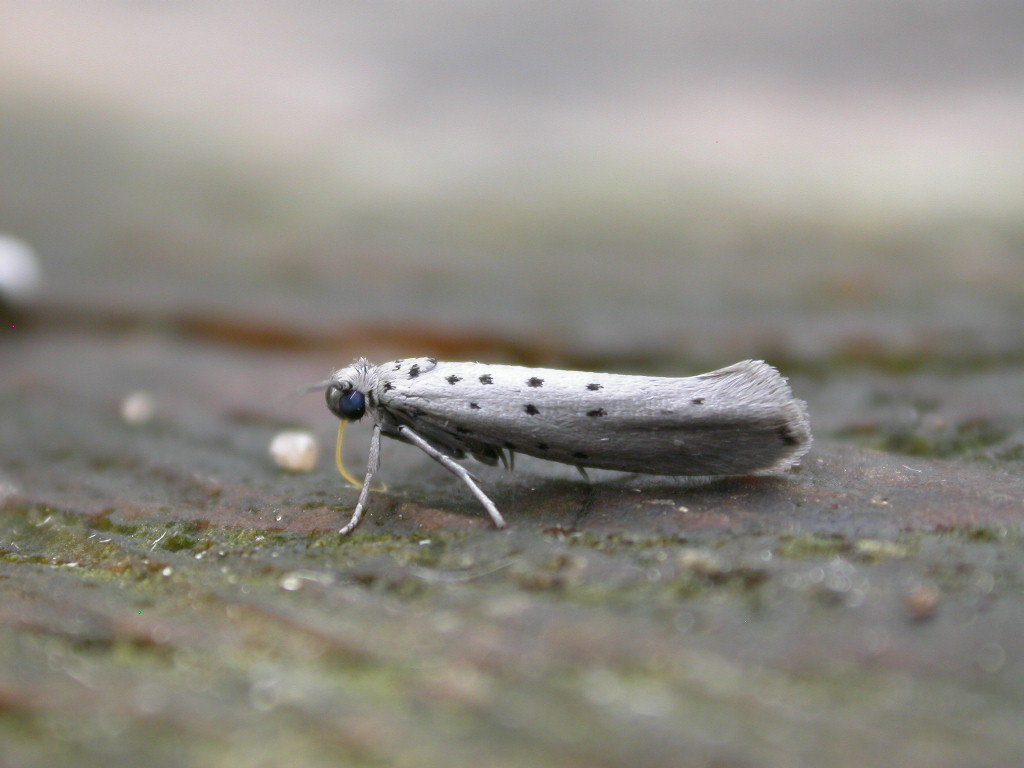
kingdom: Animalia
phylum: Arthropoda
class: Insecta
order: Lepidoptera
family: Yponomeutidae
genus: Yponomeuta
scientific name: Yponomeuta vigintipunctata
